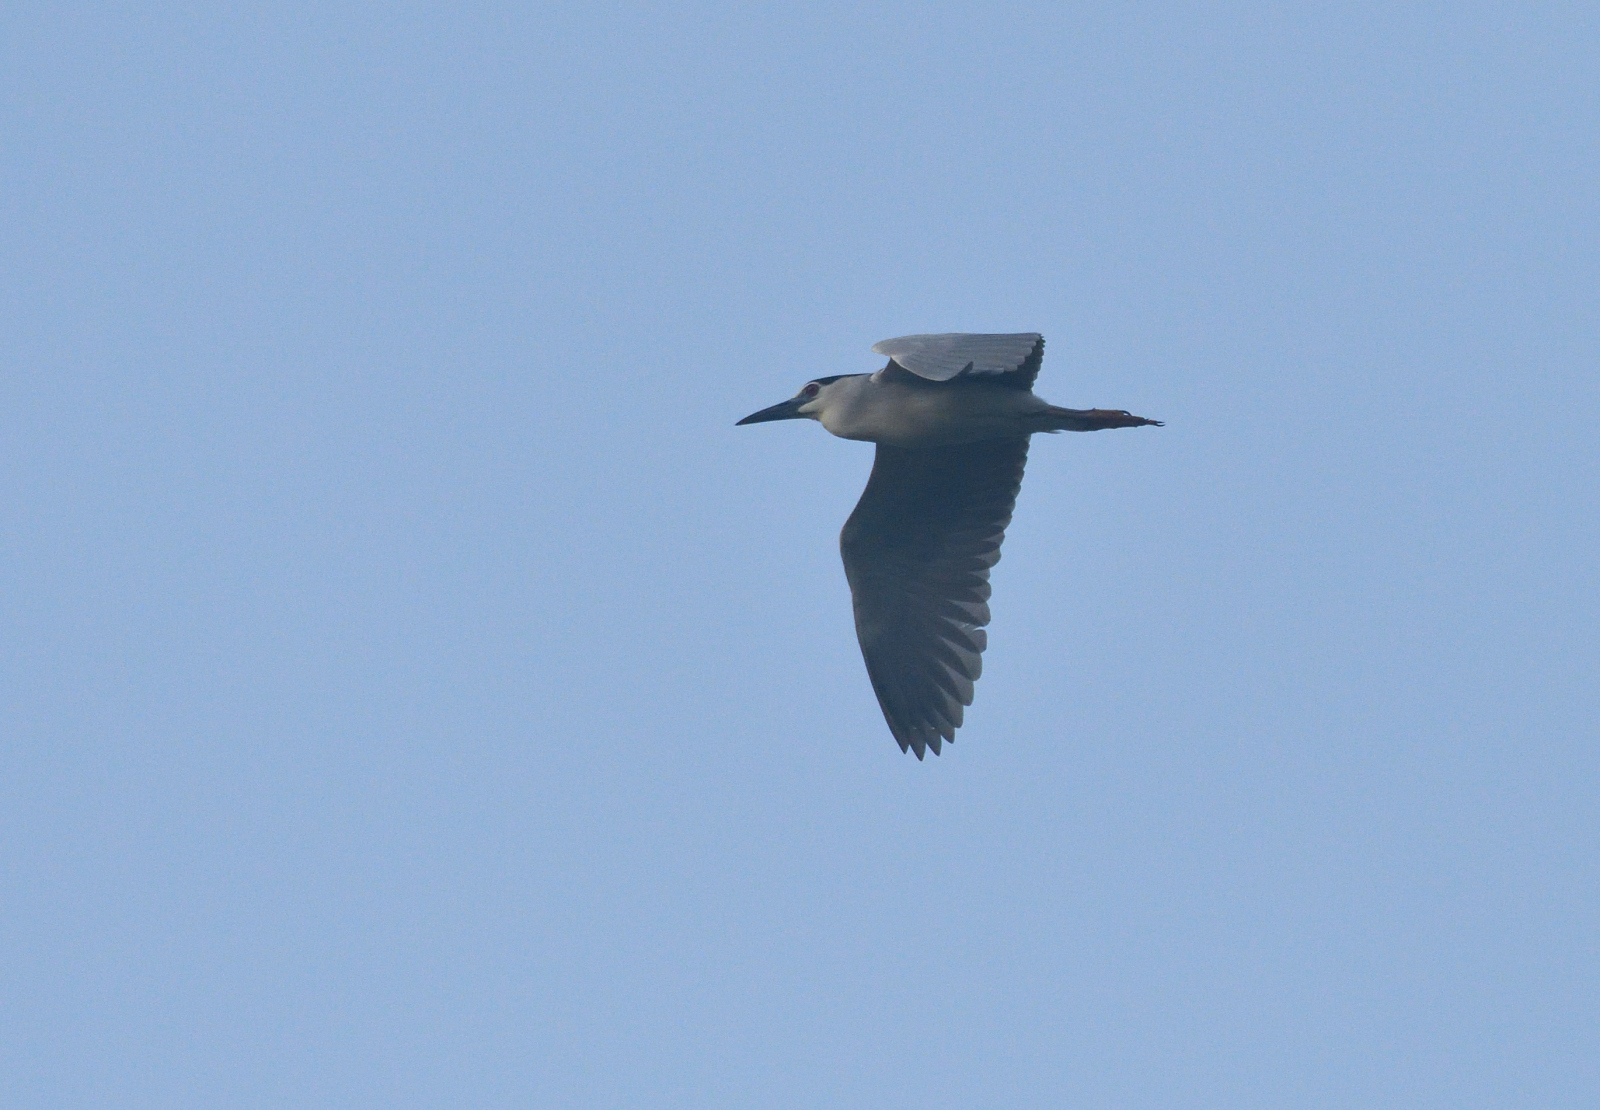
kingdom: Animalia
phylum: Chordata
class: Aves
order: Pelecaniformes
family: Ardeidae
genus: Nycticorax
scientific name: Nycticorax nycticorax
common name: Black-crowned night heron
